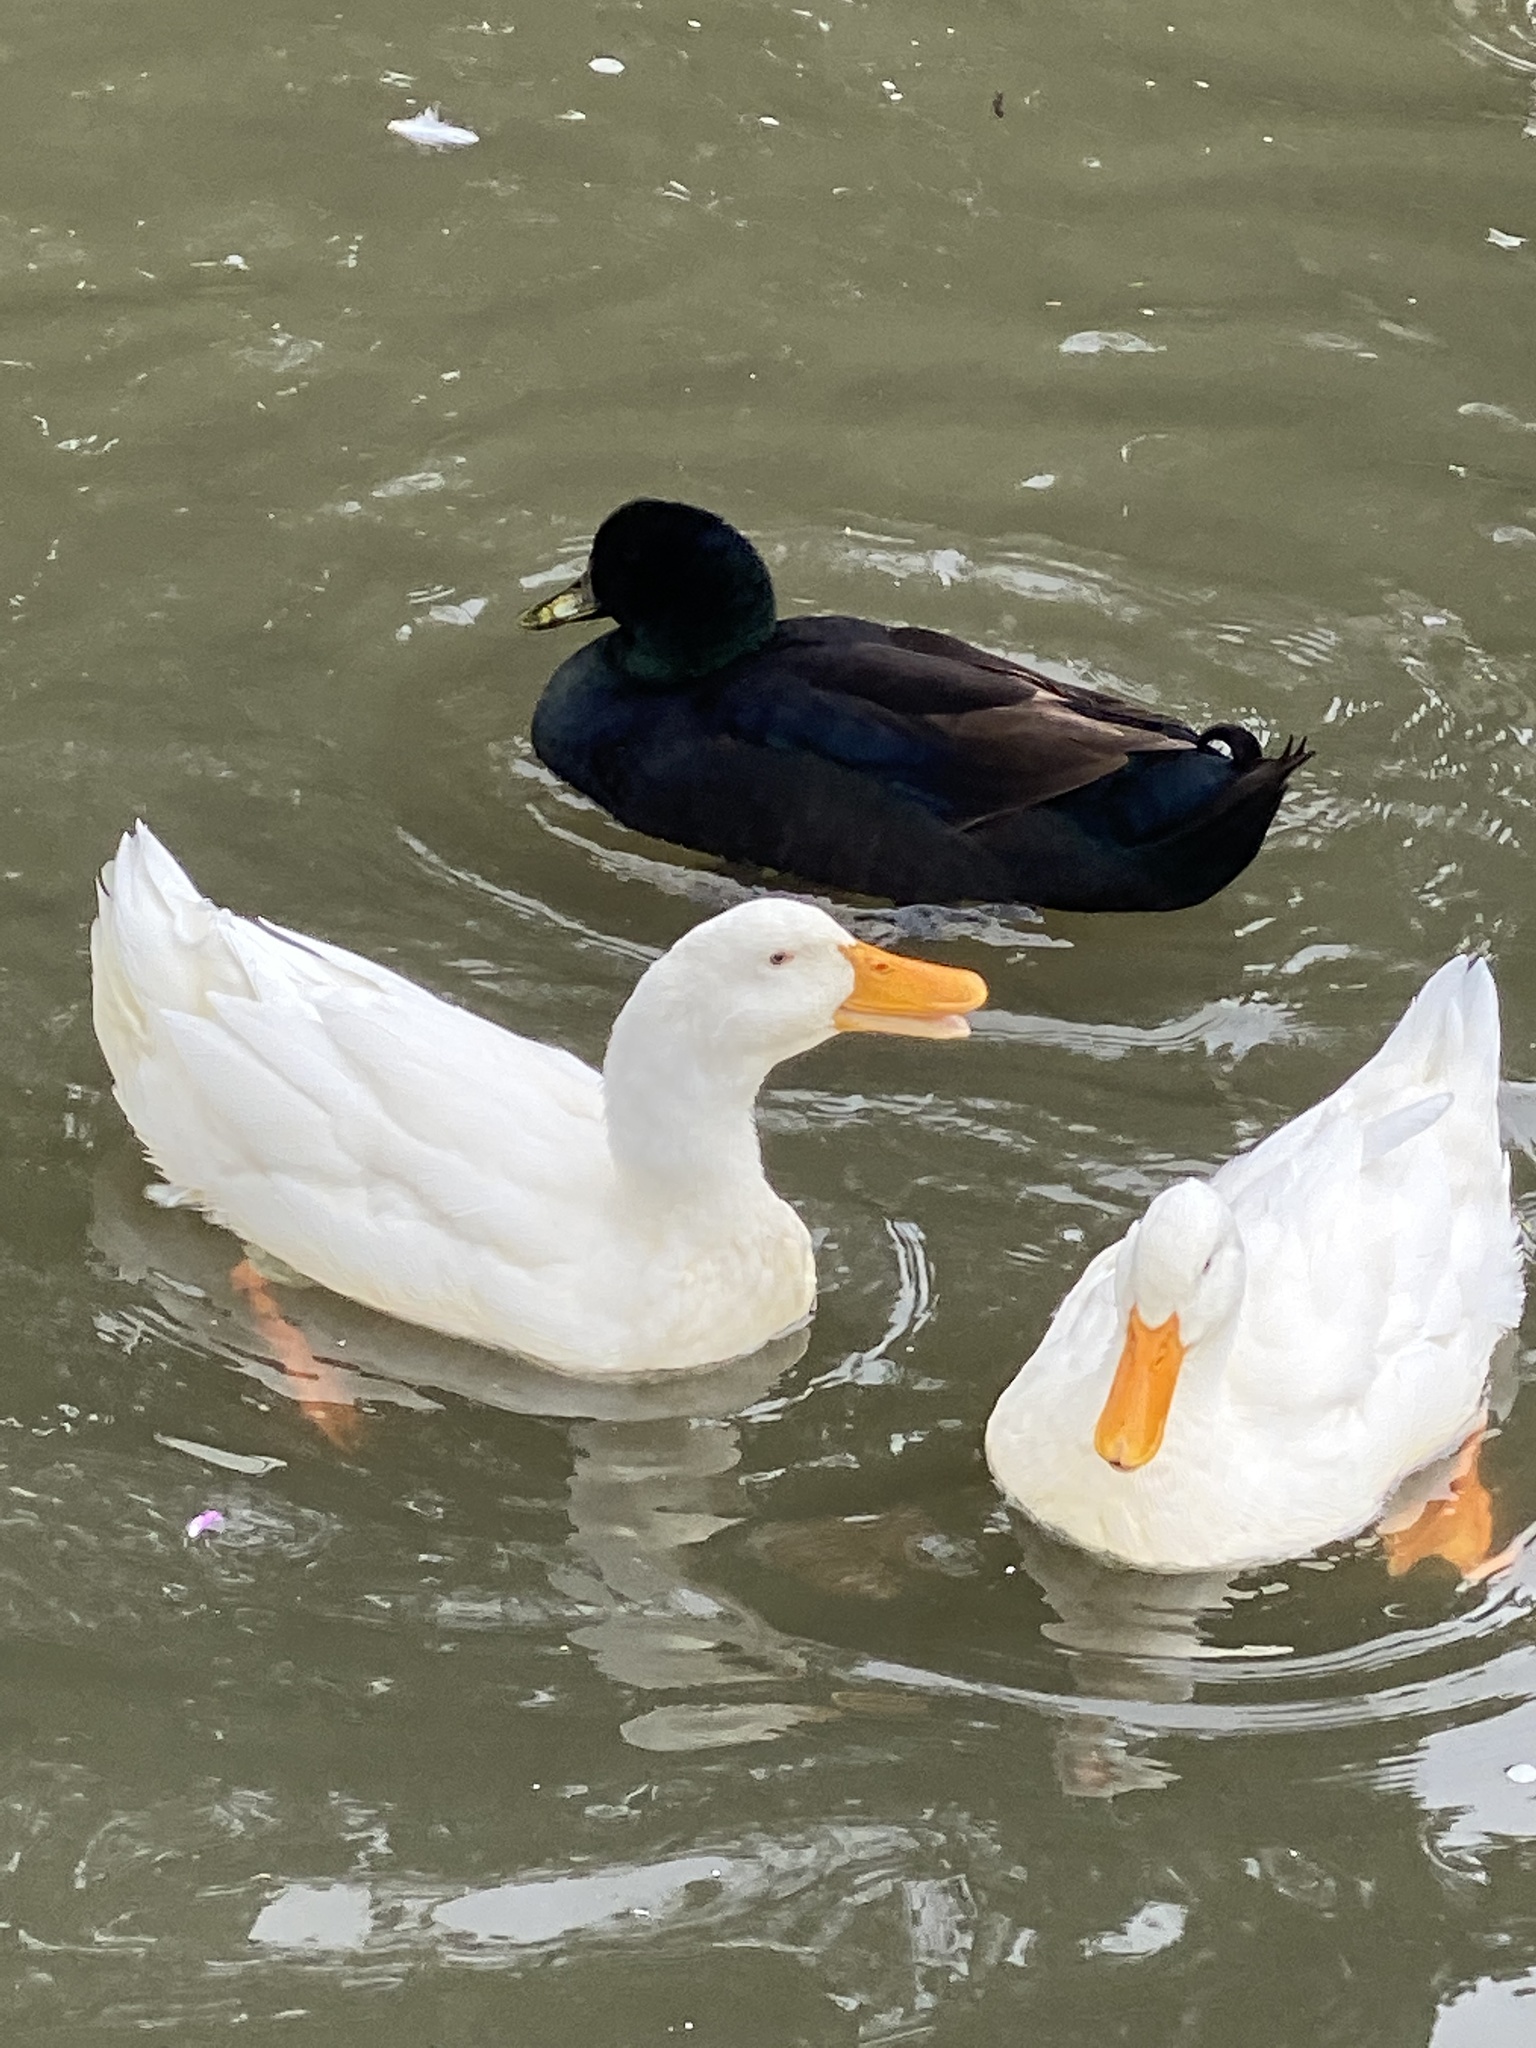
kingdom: Animalia
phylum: Chordata
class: Aves
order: Anseriformes
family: Anatidae
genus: Anas
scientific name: Anas platyrhynchos
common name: Mallard
